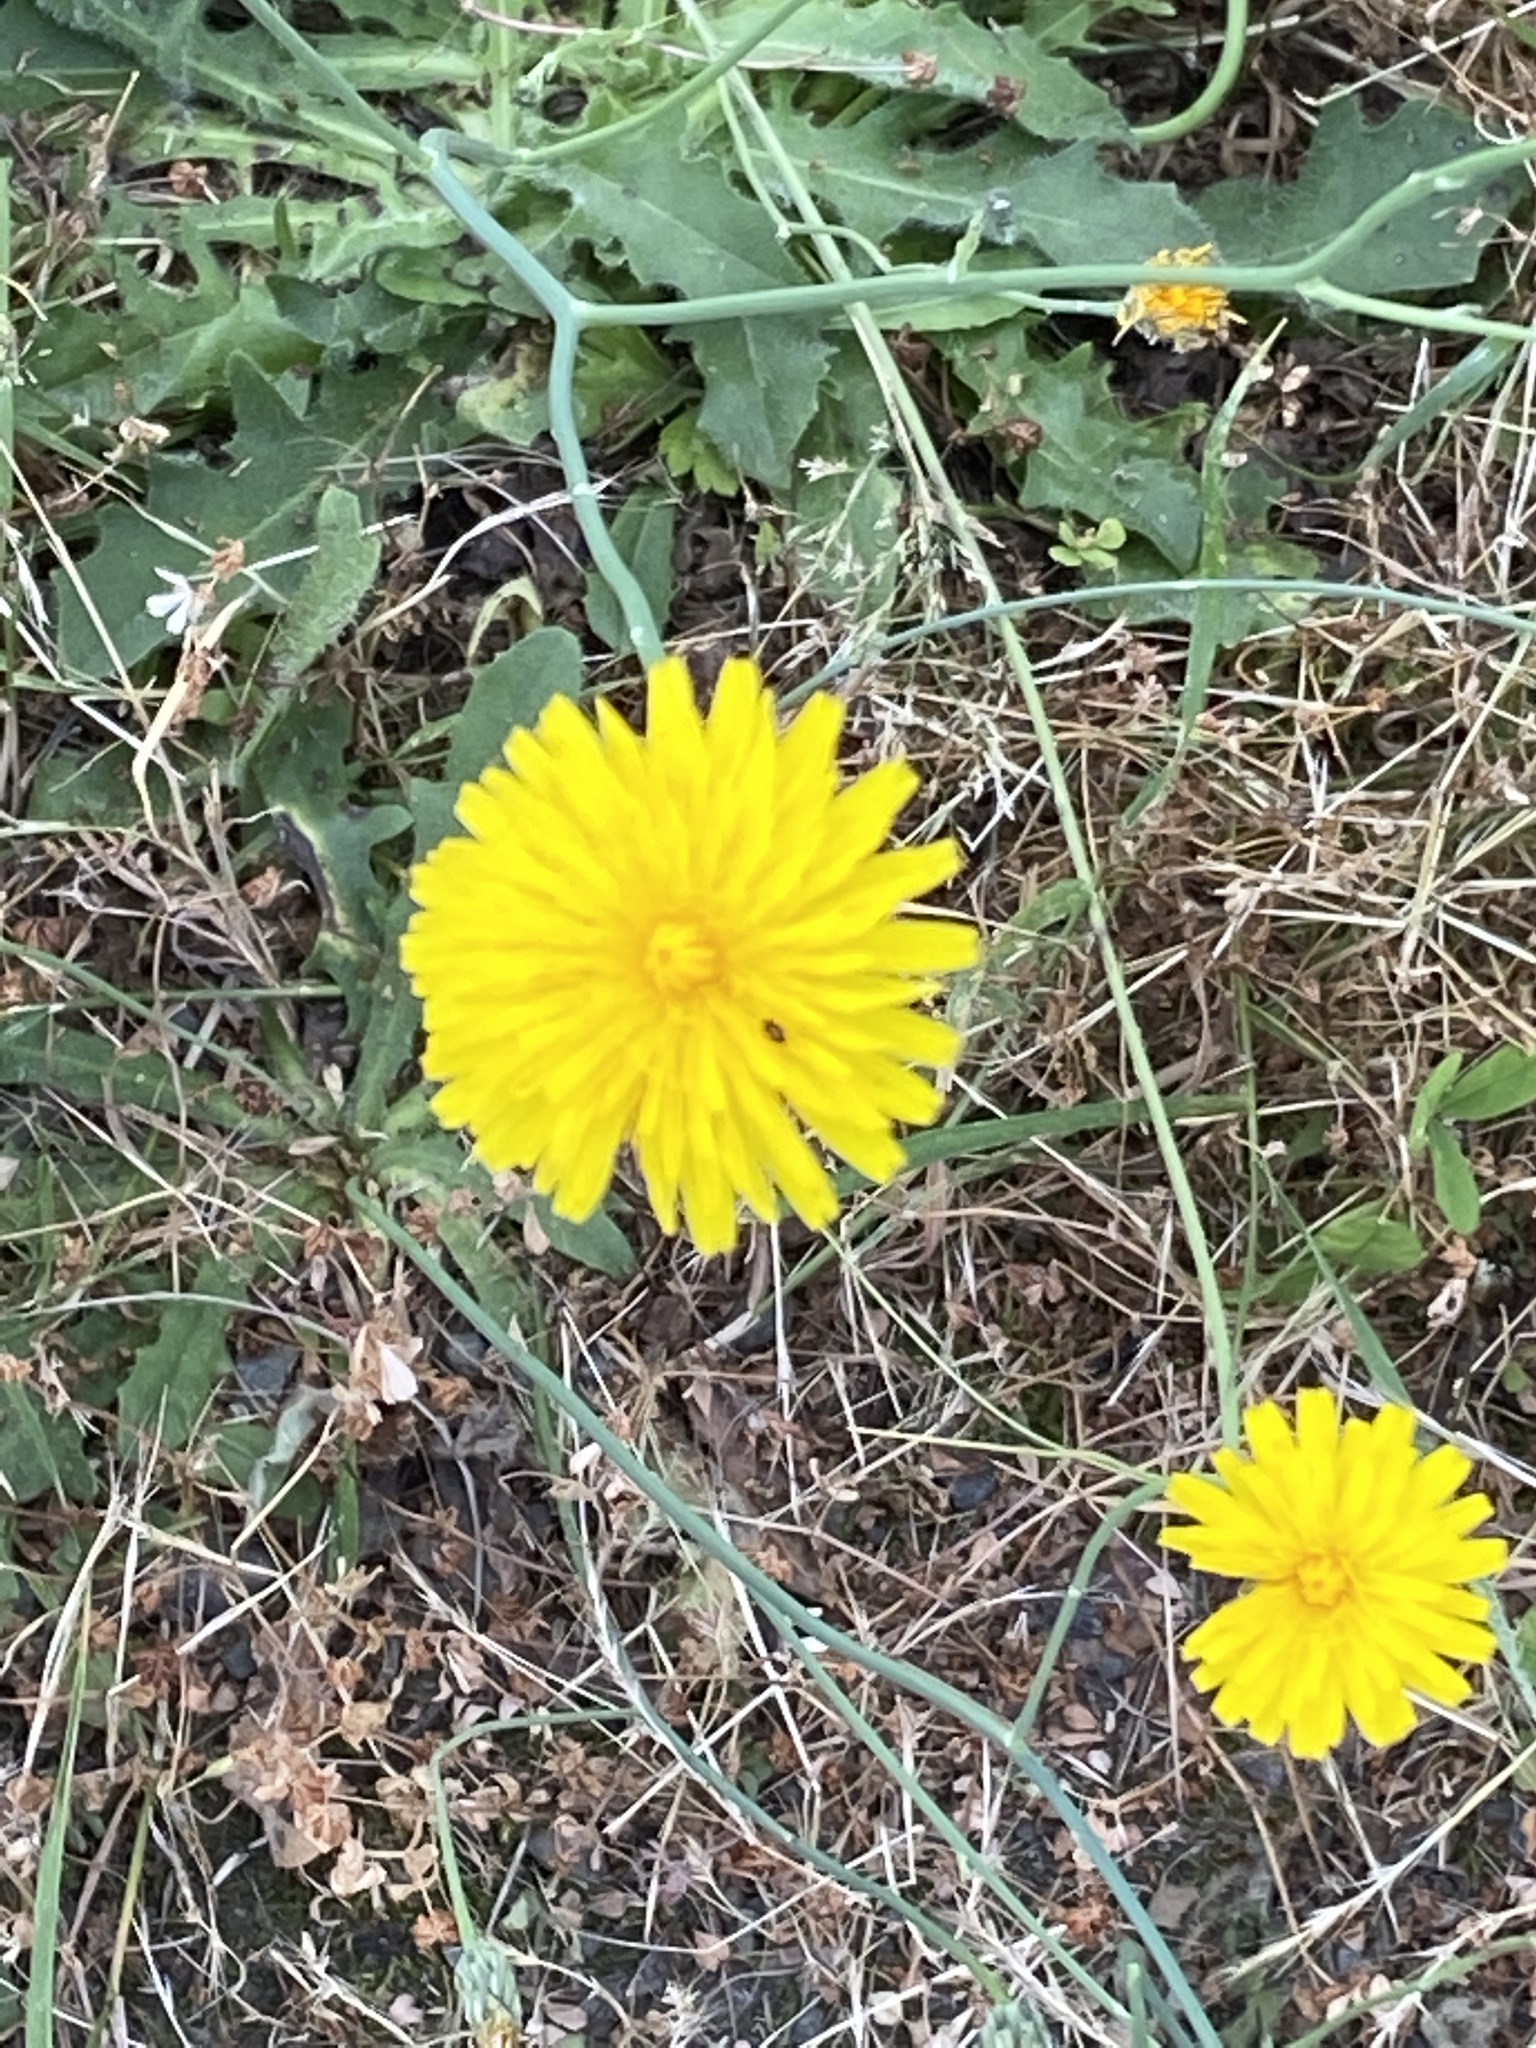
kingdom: Plantae
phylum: Tracheophyta
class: Magnoliopsida
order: Asterales
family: Asteraceae
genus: Hypochaeris
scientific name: Hypochaeris radicata
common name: Flatweed
